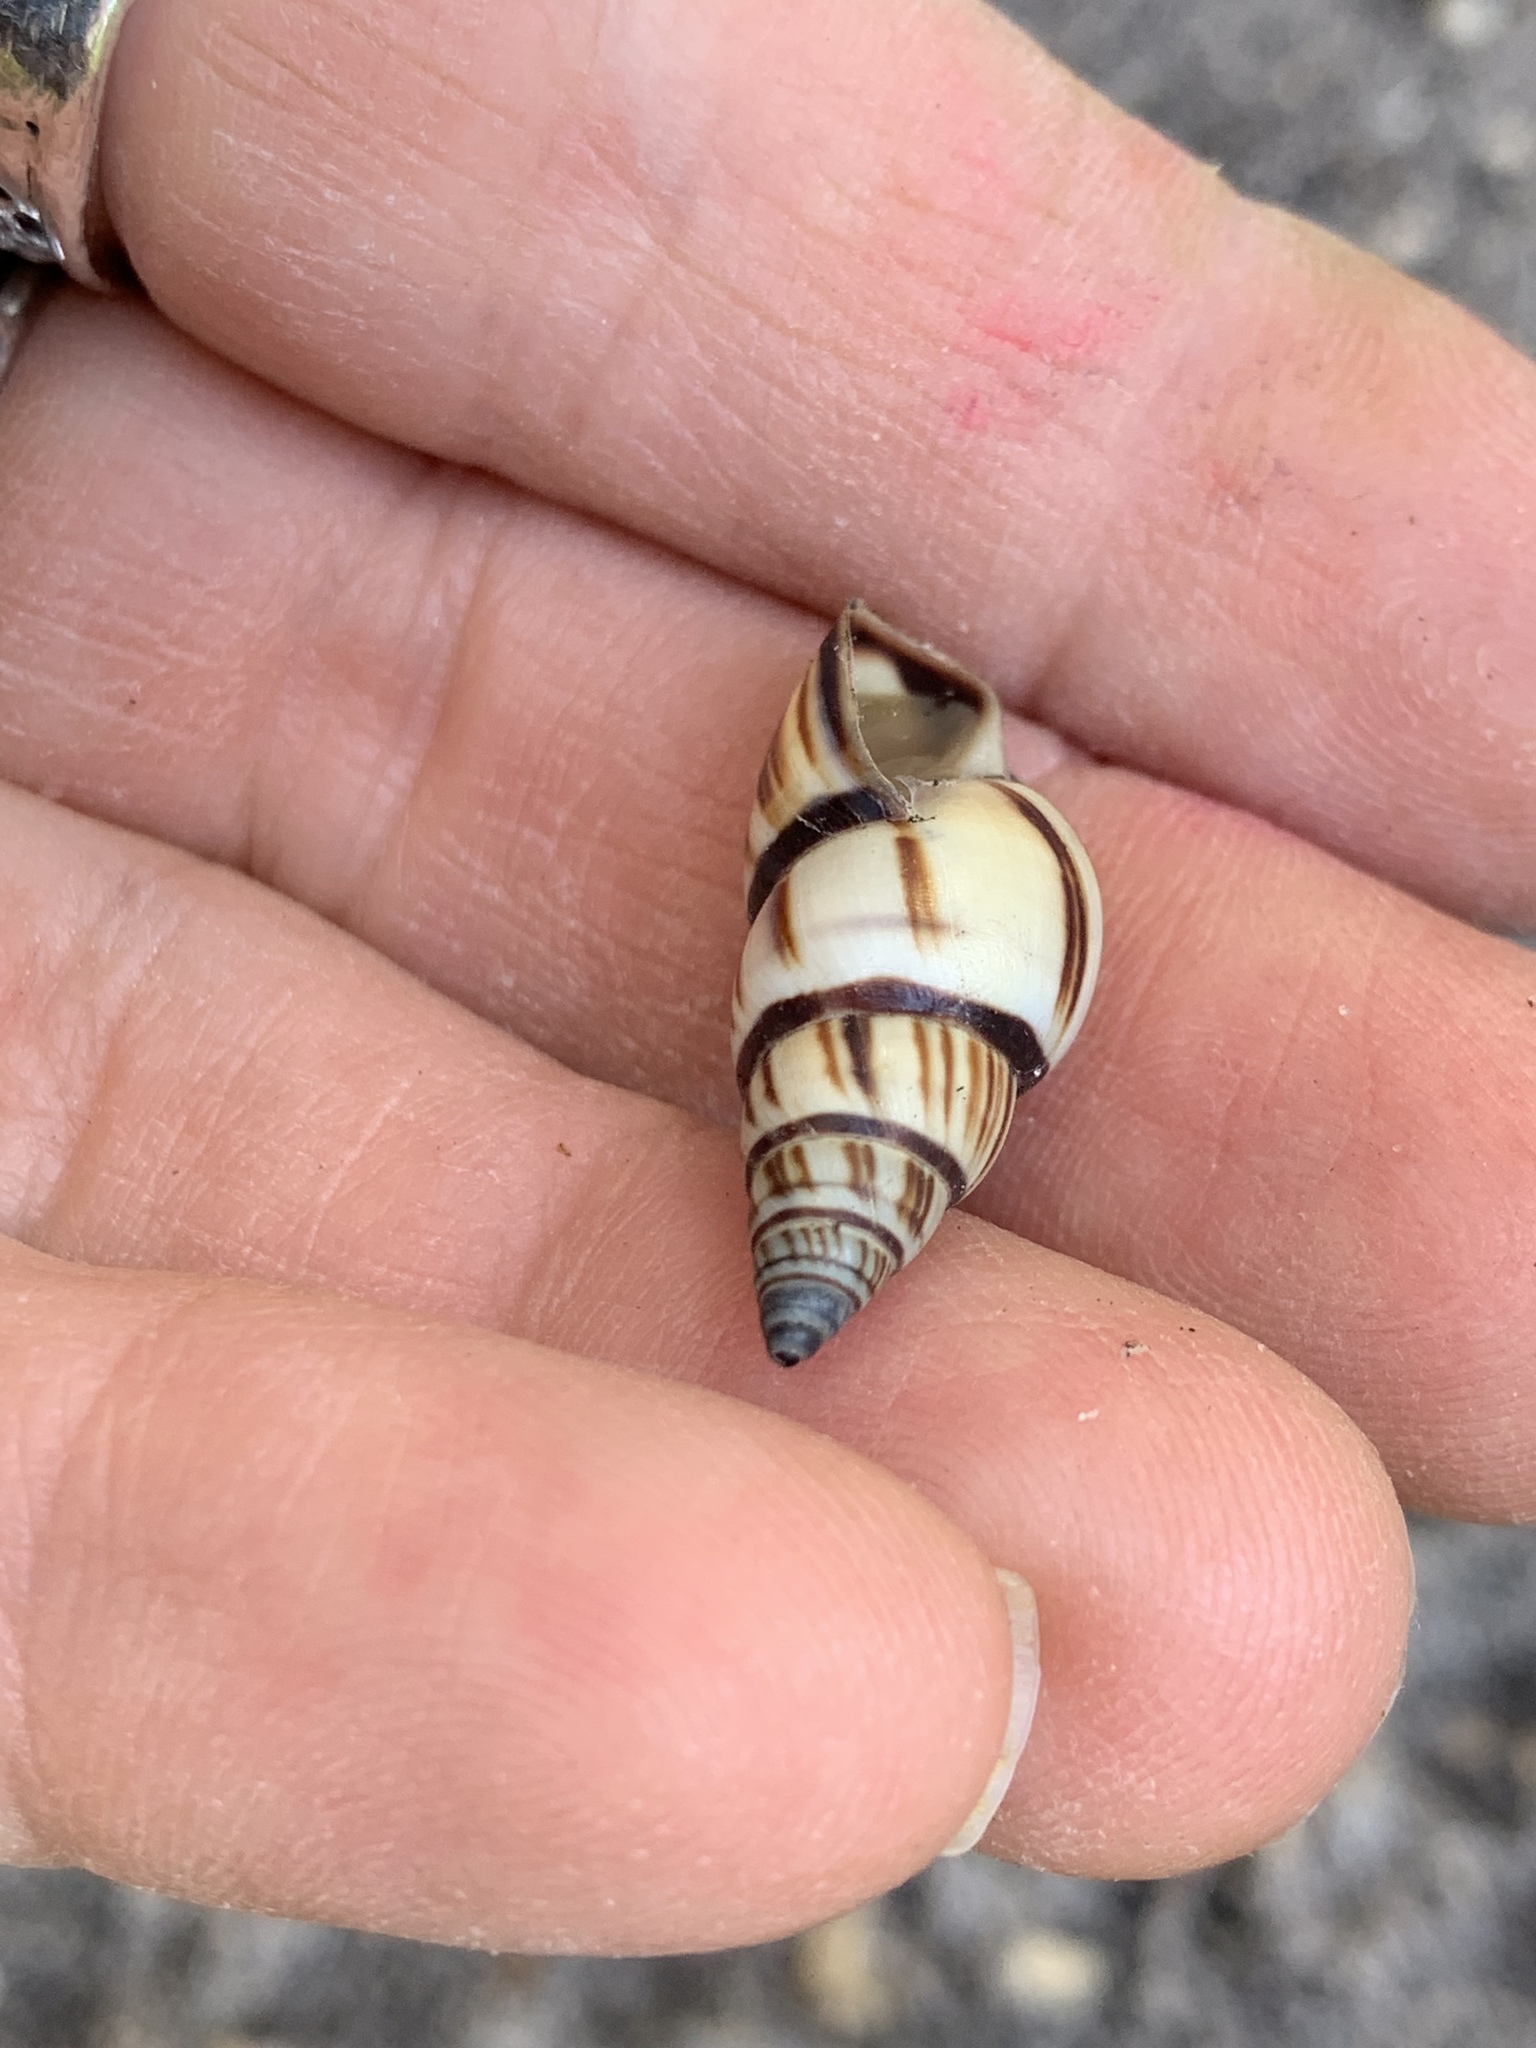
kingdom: Animalia
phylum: Mollusca
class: Gastropoda
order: Stylommatophora
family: Bulimulidae
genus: Drymaeus
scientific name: Drymaeus
